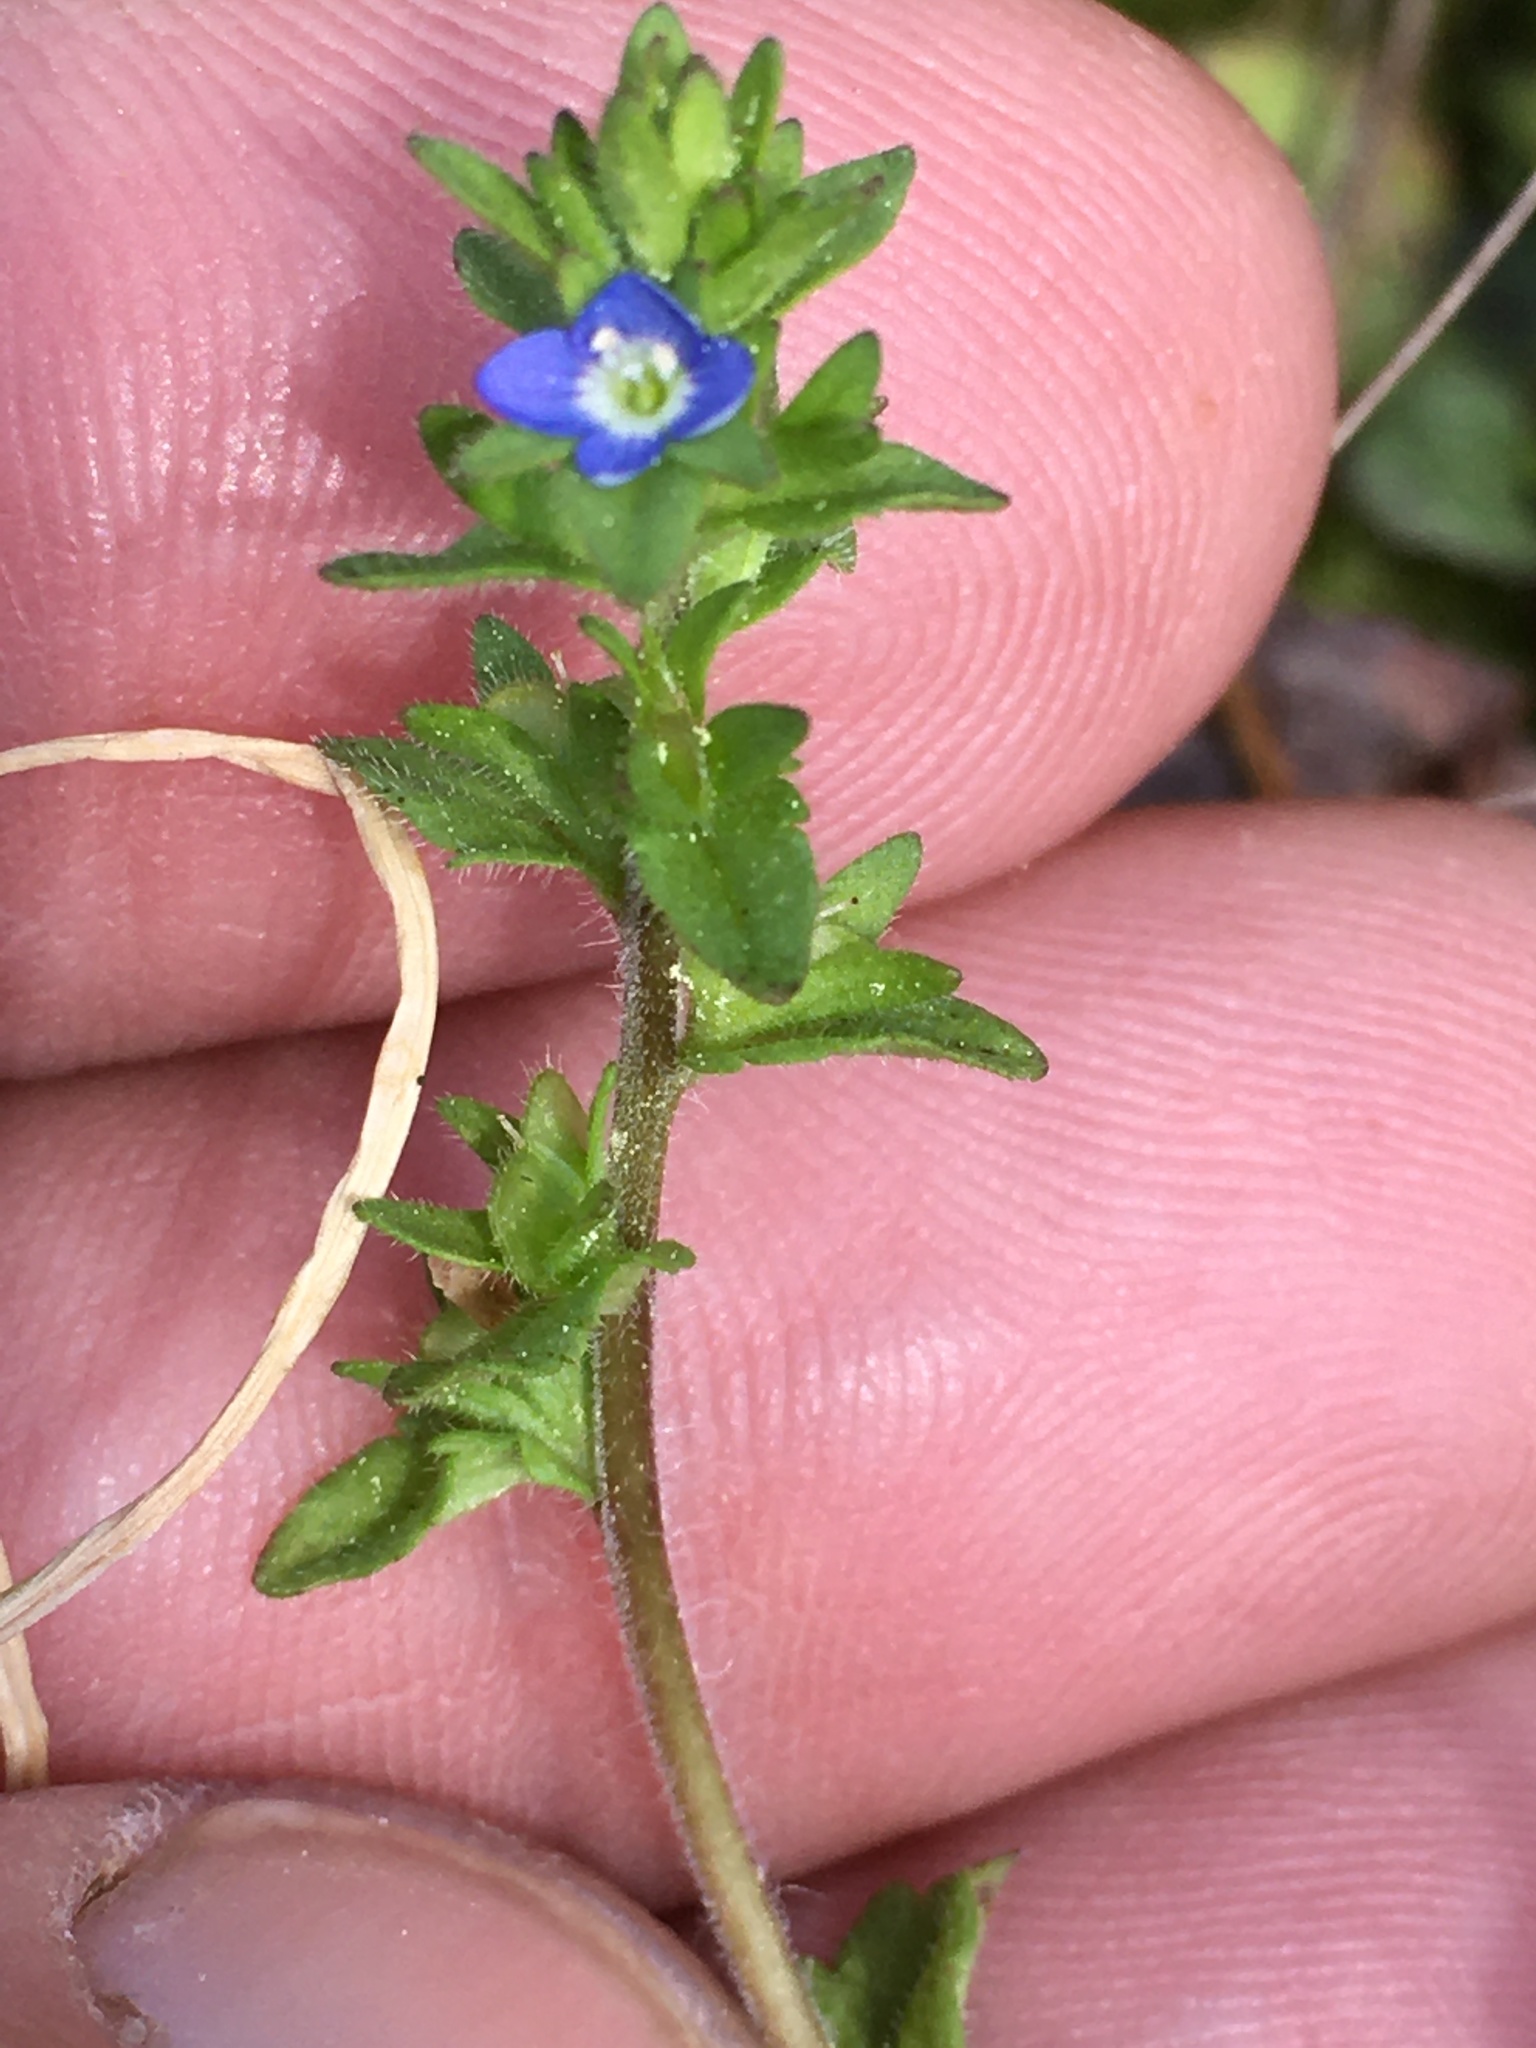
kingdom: Plantae
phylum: Tracheophyta
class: Magnoliopsida
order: Lamiales
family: Plantaginaceae
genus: Veronica
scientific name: Veronica arvensis
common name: Corn speedwell
